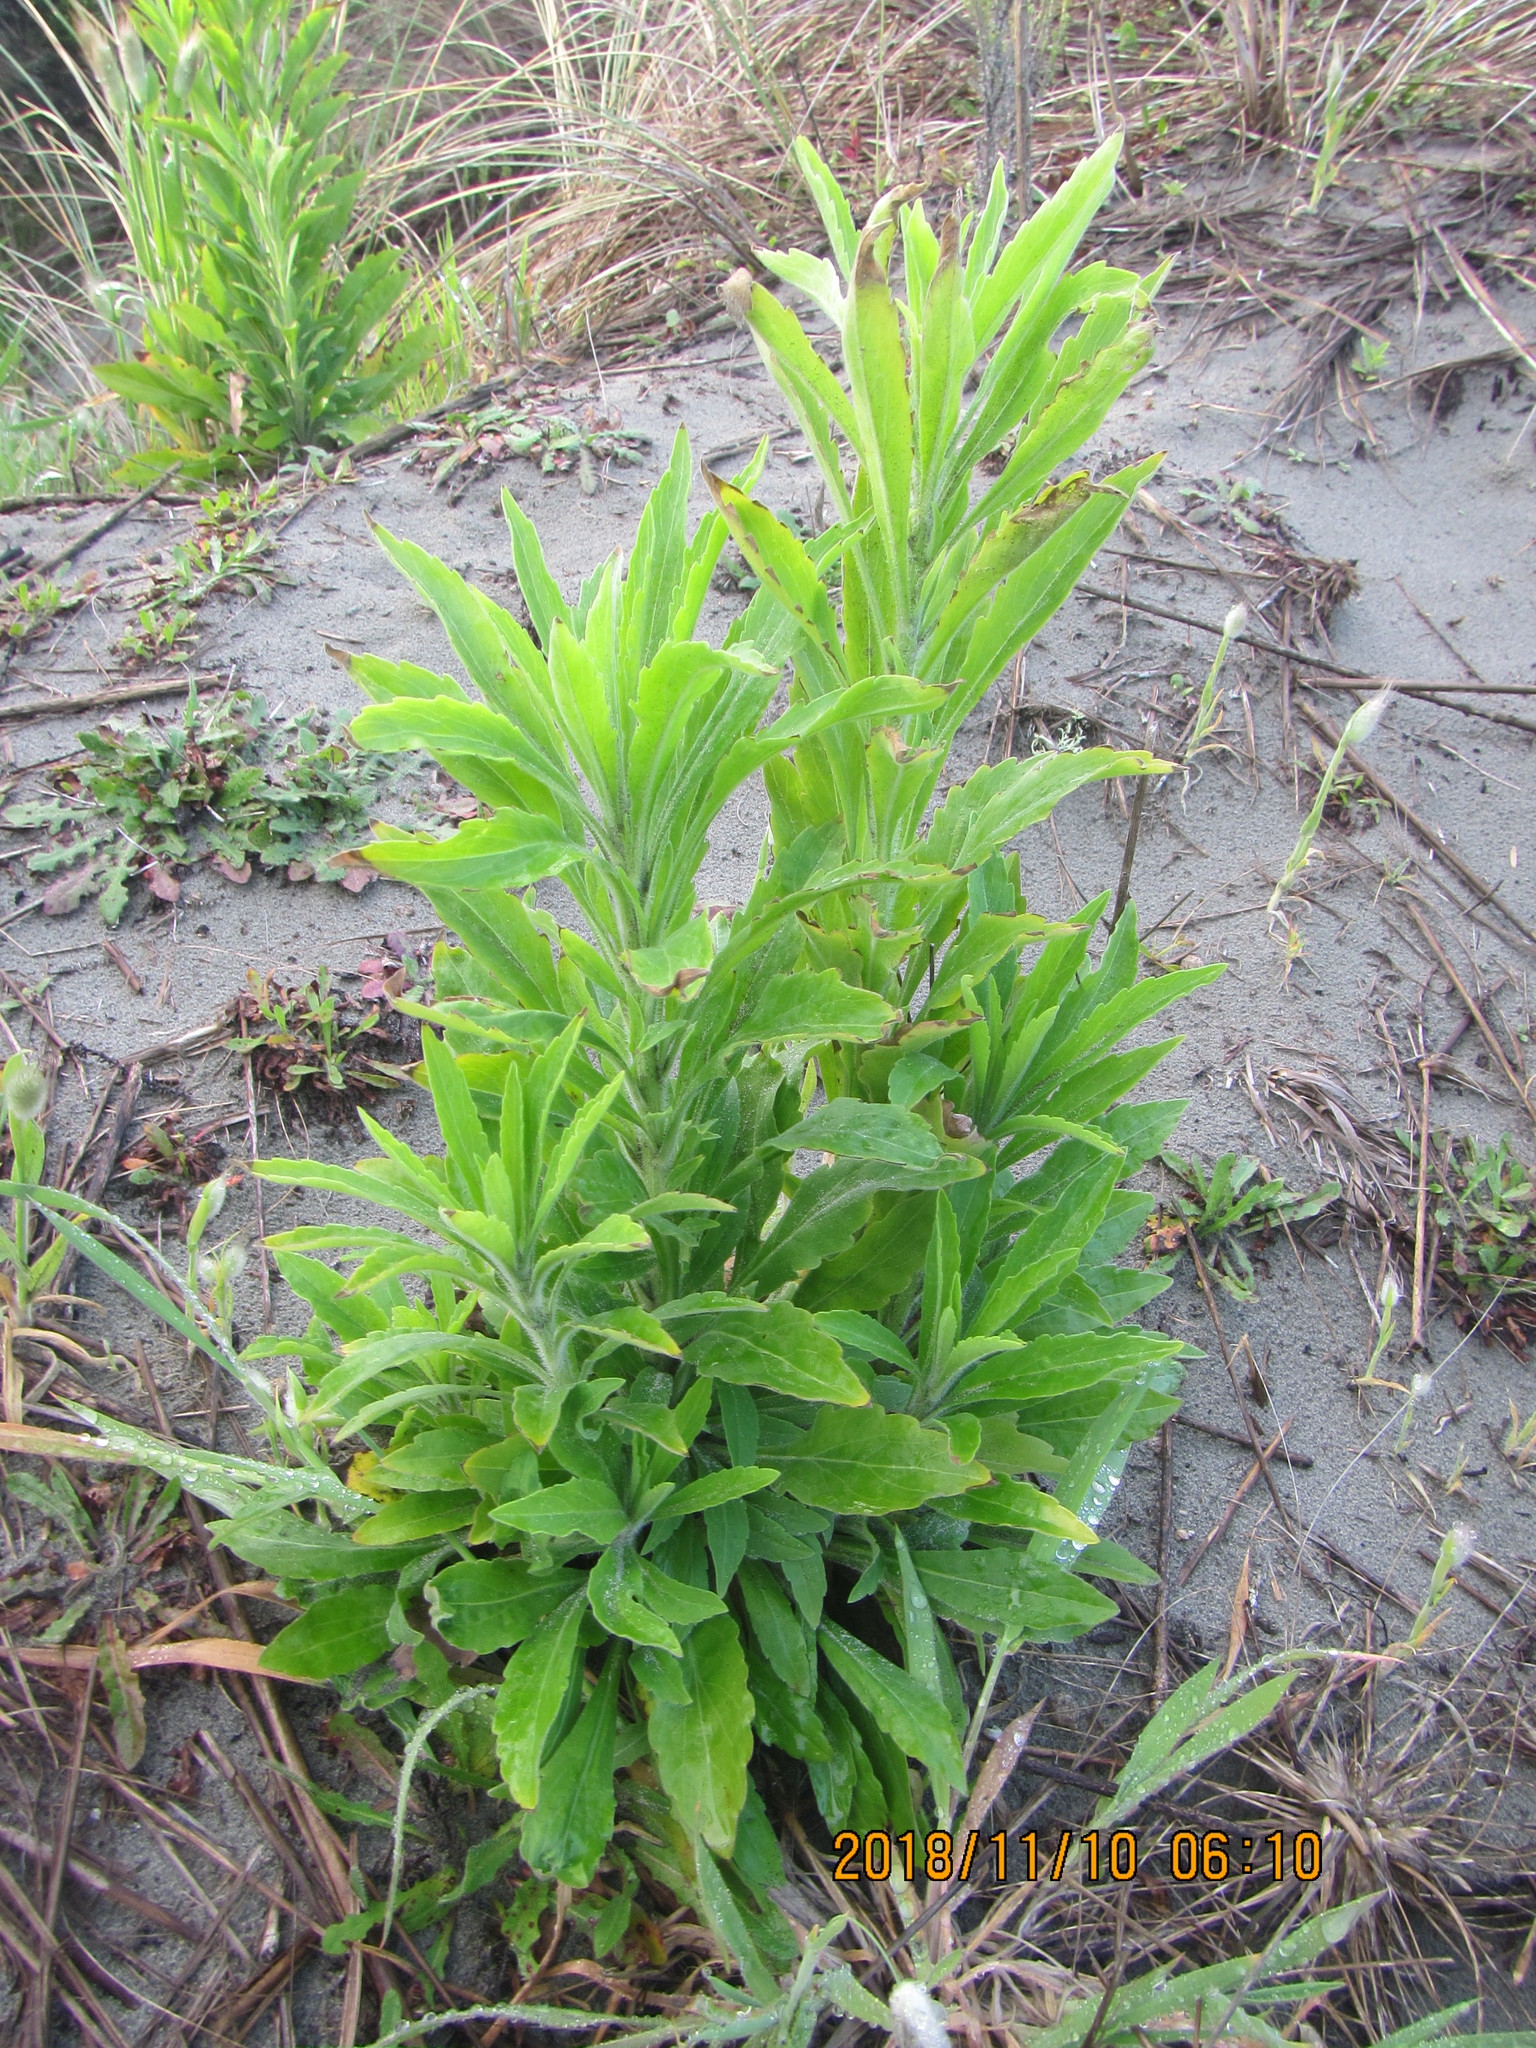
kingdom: Plantae
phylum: Tracheophyta
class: Magnoliopsida
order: Asterales
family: Asteraceae
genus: Erigeron
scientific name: Erigeron sumatrensis
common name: Daisy
